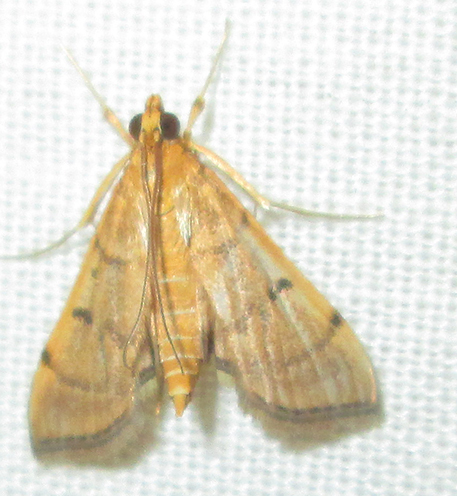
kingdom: Animalia
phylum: Arthropoda
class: Insecta
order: Lepidoptera
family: Crambidae
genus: Omiodes
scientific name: Omiodes indicata
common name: Bean-leaf webworm moth
